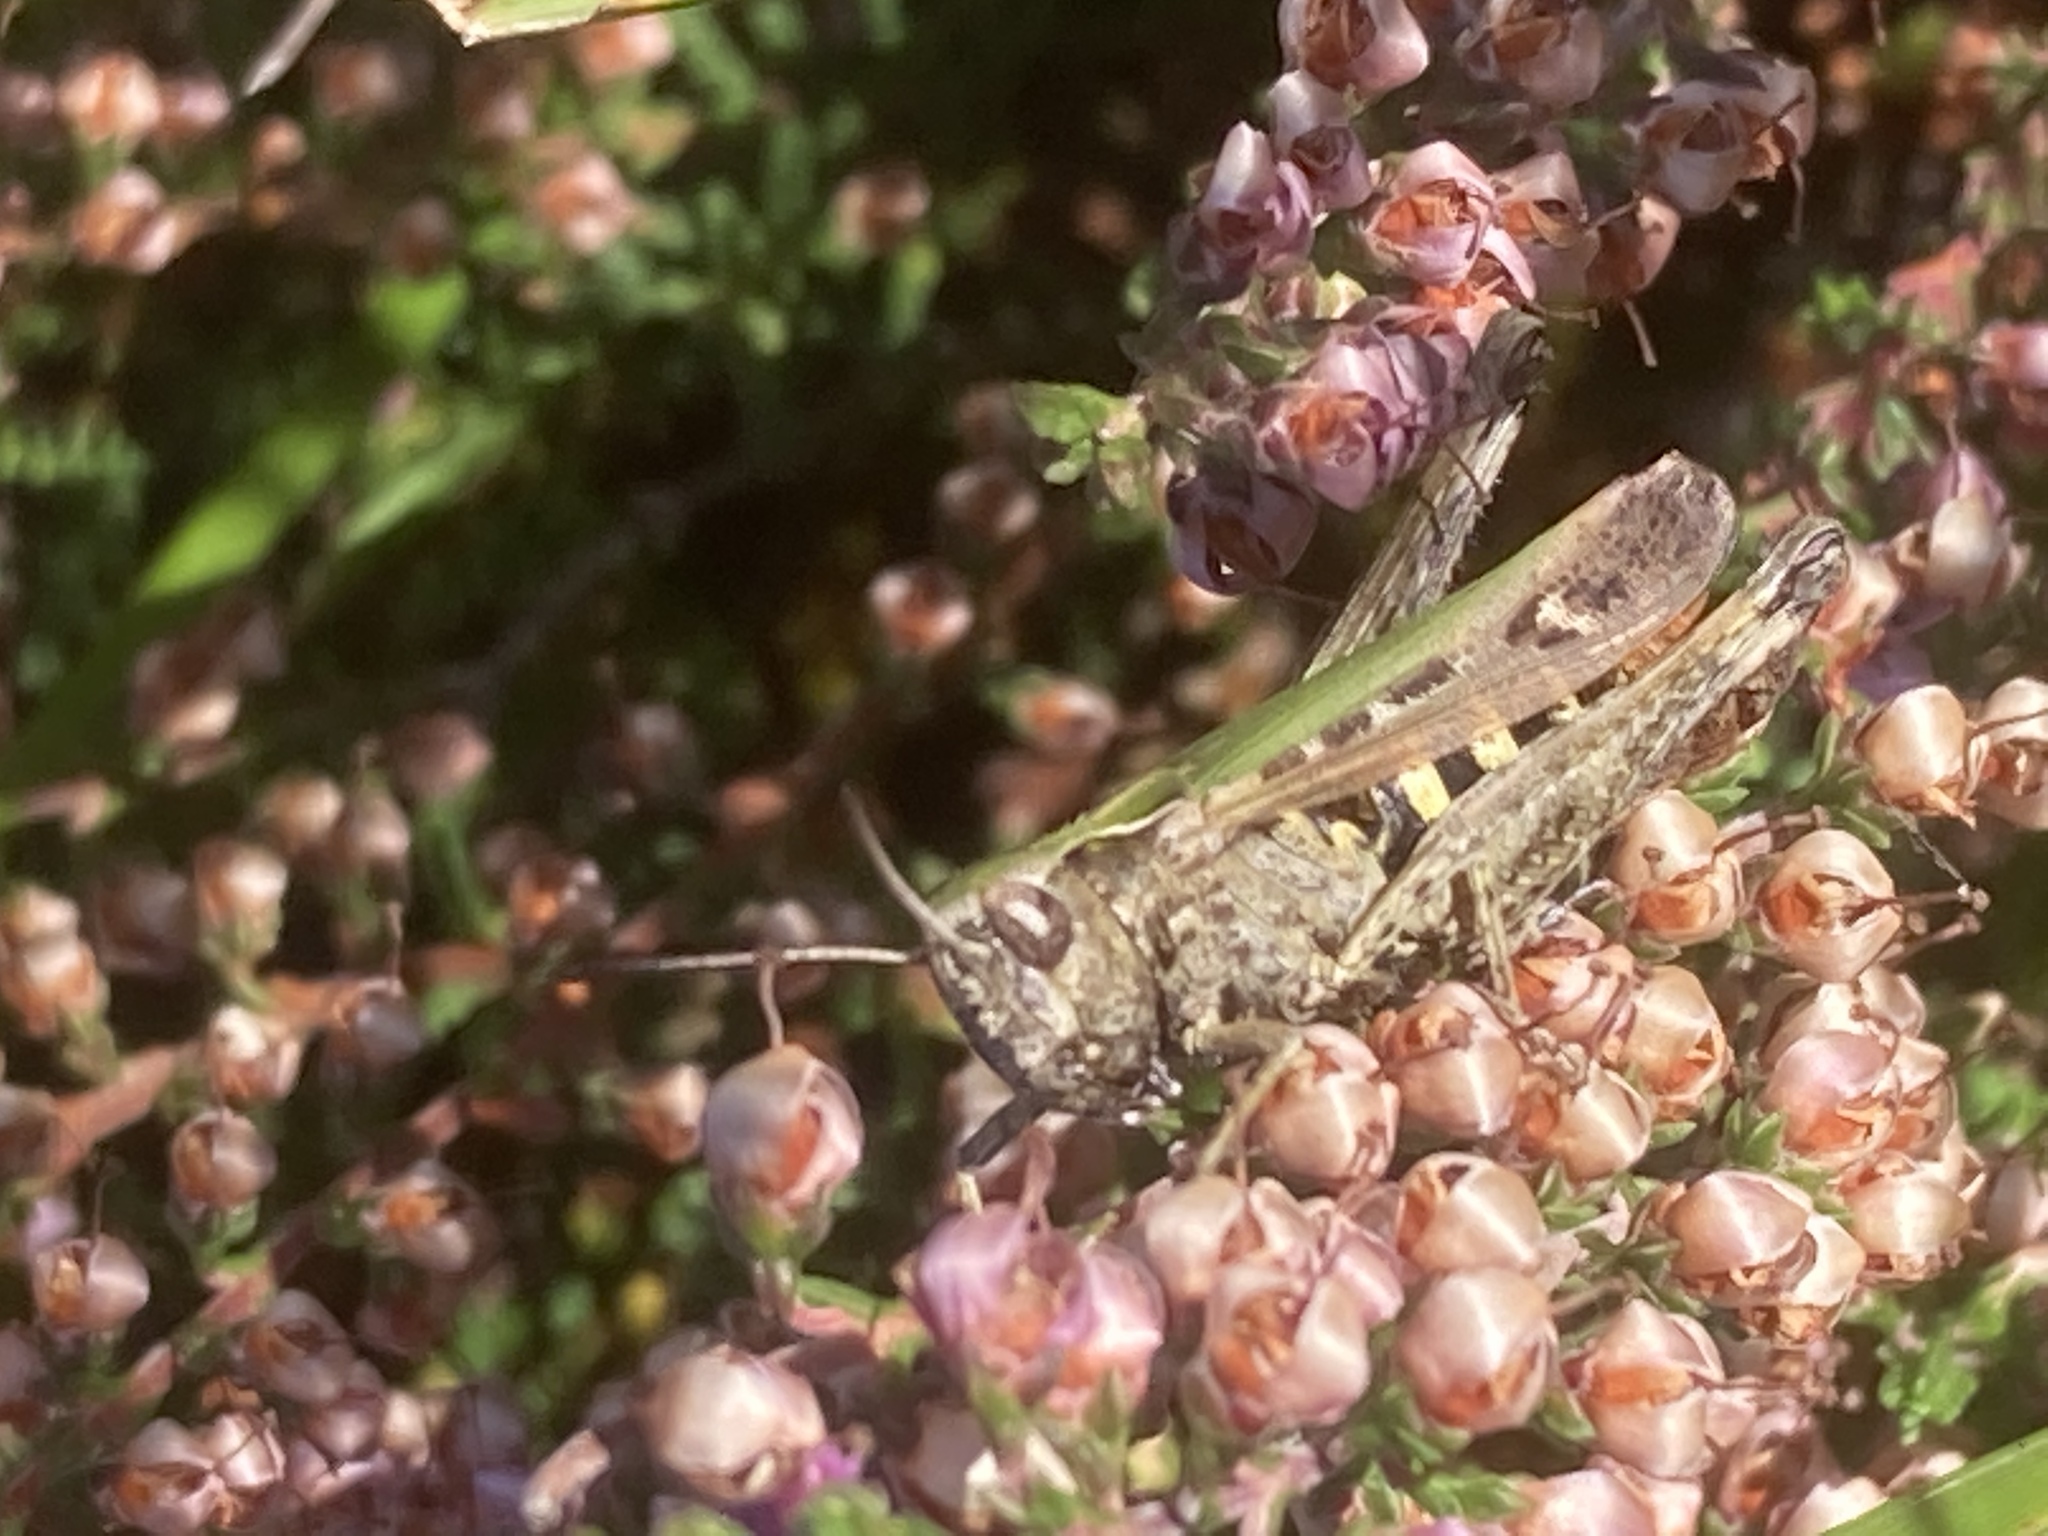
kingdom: Animalia
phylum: Arthropoda
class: Insecta
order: Orthoptera
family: Acrididae
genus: Omocestus
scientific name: Omocestus rufipes
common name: Woodland grasshopper
